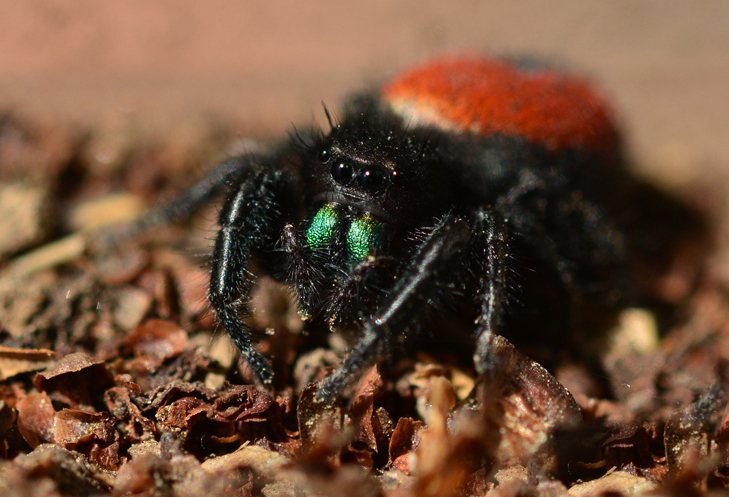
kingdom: Animalia
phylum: Arthropoda
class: Arachnida
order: Araneae
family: Salticidae
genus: Phidippus
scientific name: Phidippus johnsoni
